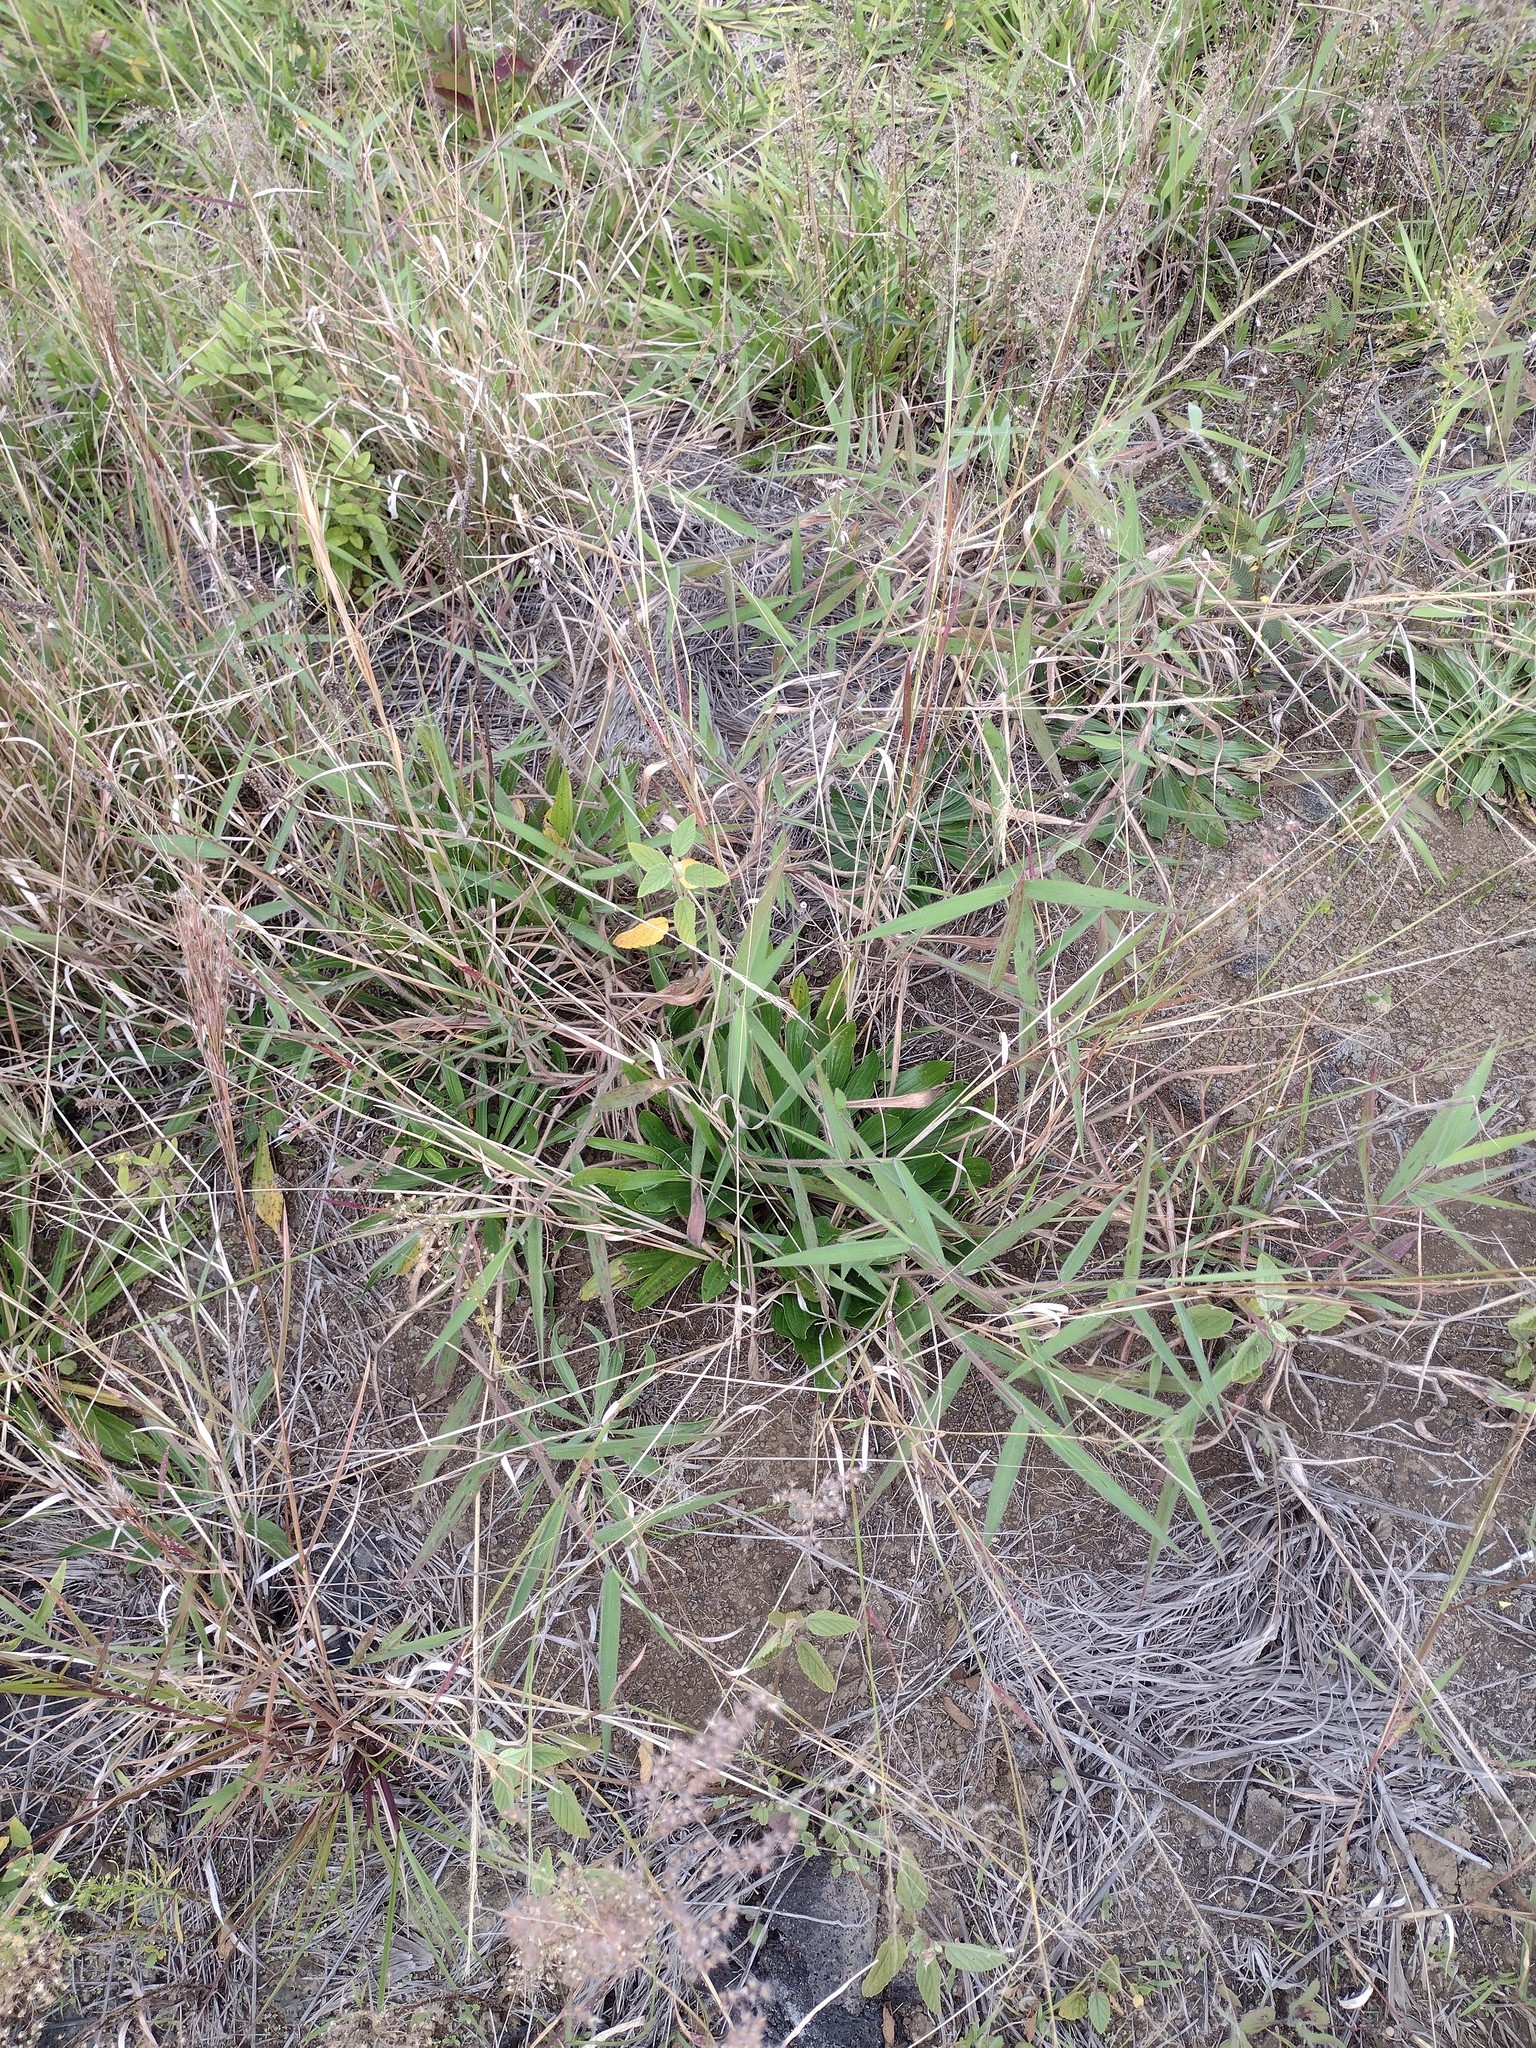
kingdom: Plantae
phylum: Tracheophyta
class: Liliopsida
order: Poales
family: Poaceae
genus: Melinis
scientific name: Melinis minutiflora
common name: Molassesgrass
